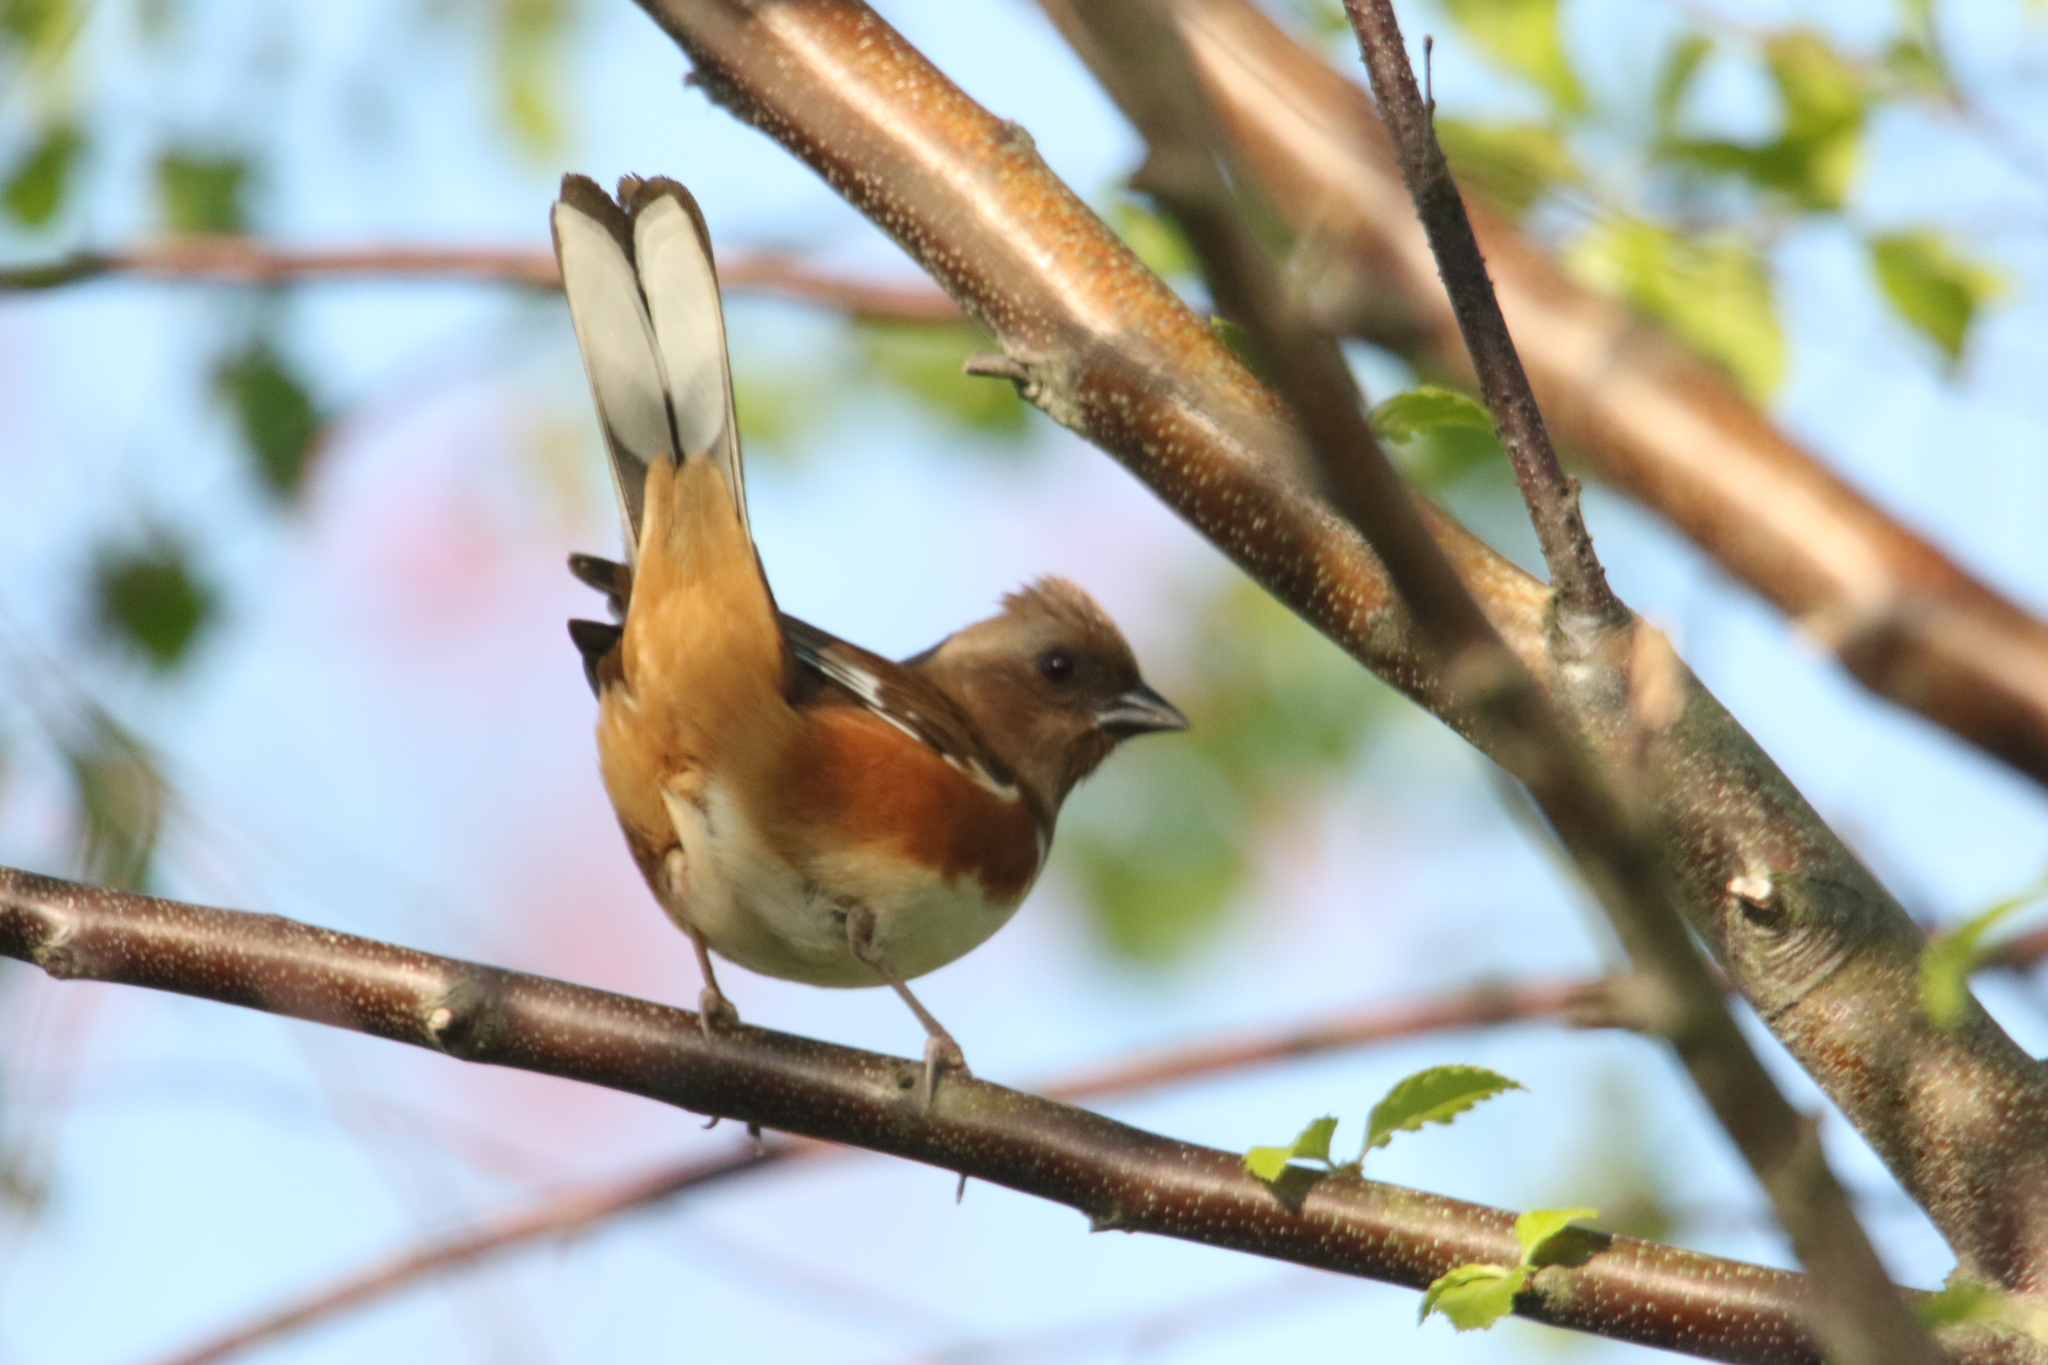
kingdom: Animalia
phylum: Chordata
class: Aves
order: Passeriformes
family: Passerellidae
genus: Pipilo
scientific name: Pipilo erythrophthalmus
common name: Eastern towhee
